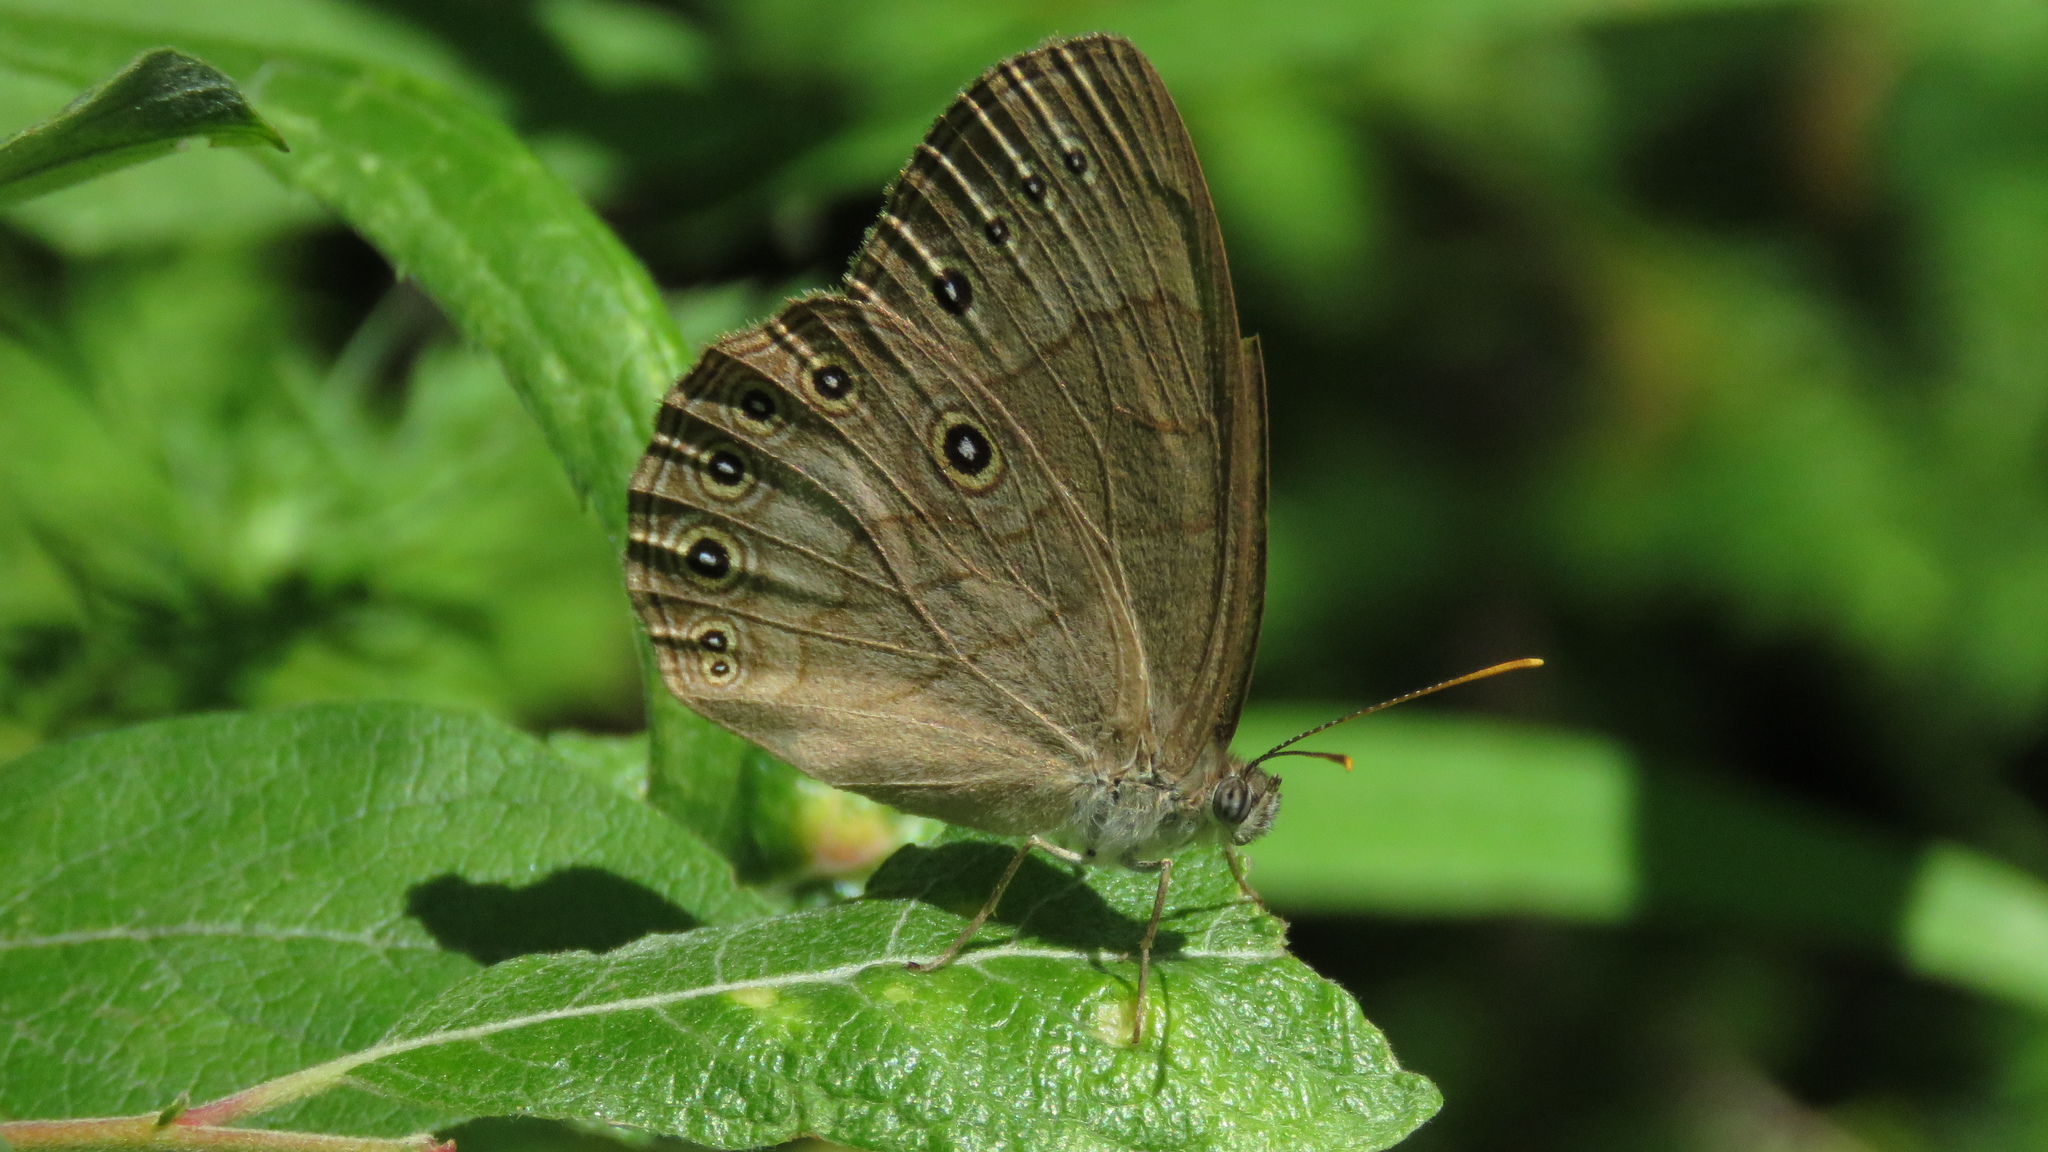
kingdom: Animalia
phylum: Arthropoda
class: Insecta
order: Lepidoptera
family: Nymphalidae
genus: Lethe
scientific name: Lethe eurydice
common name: Eyed brown
